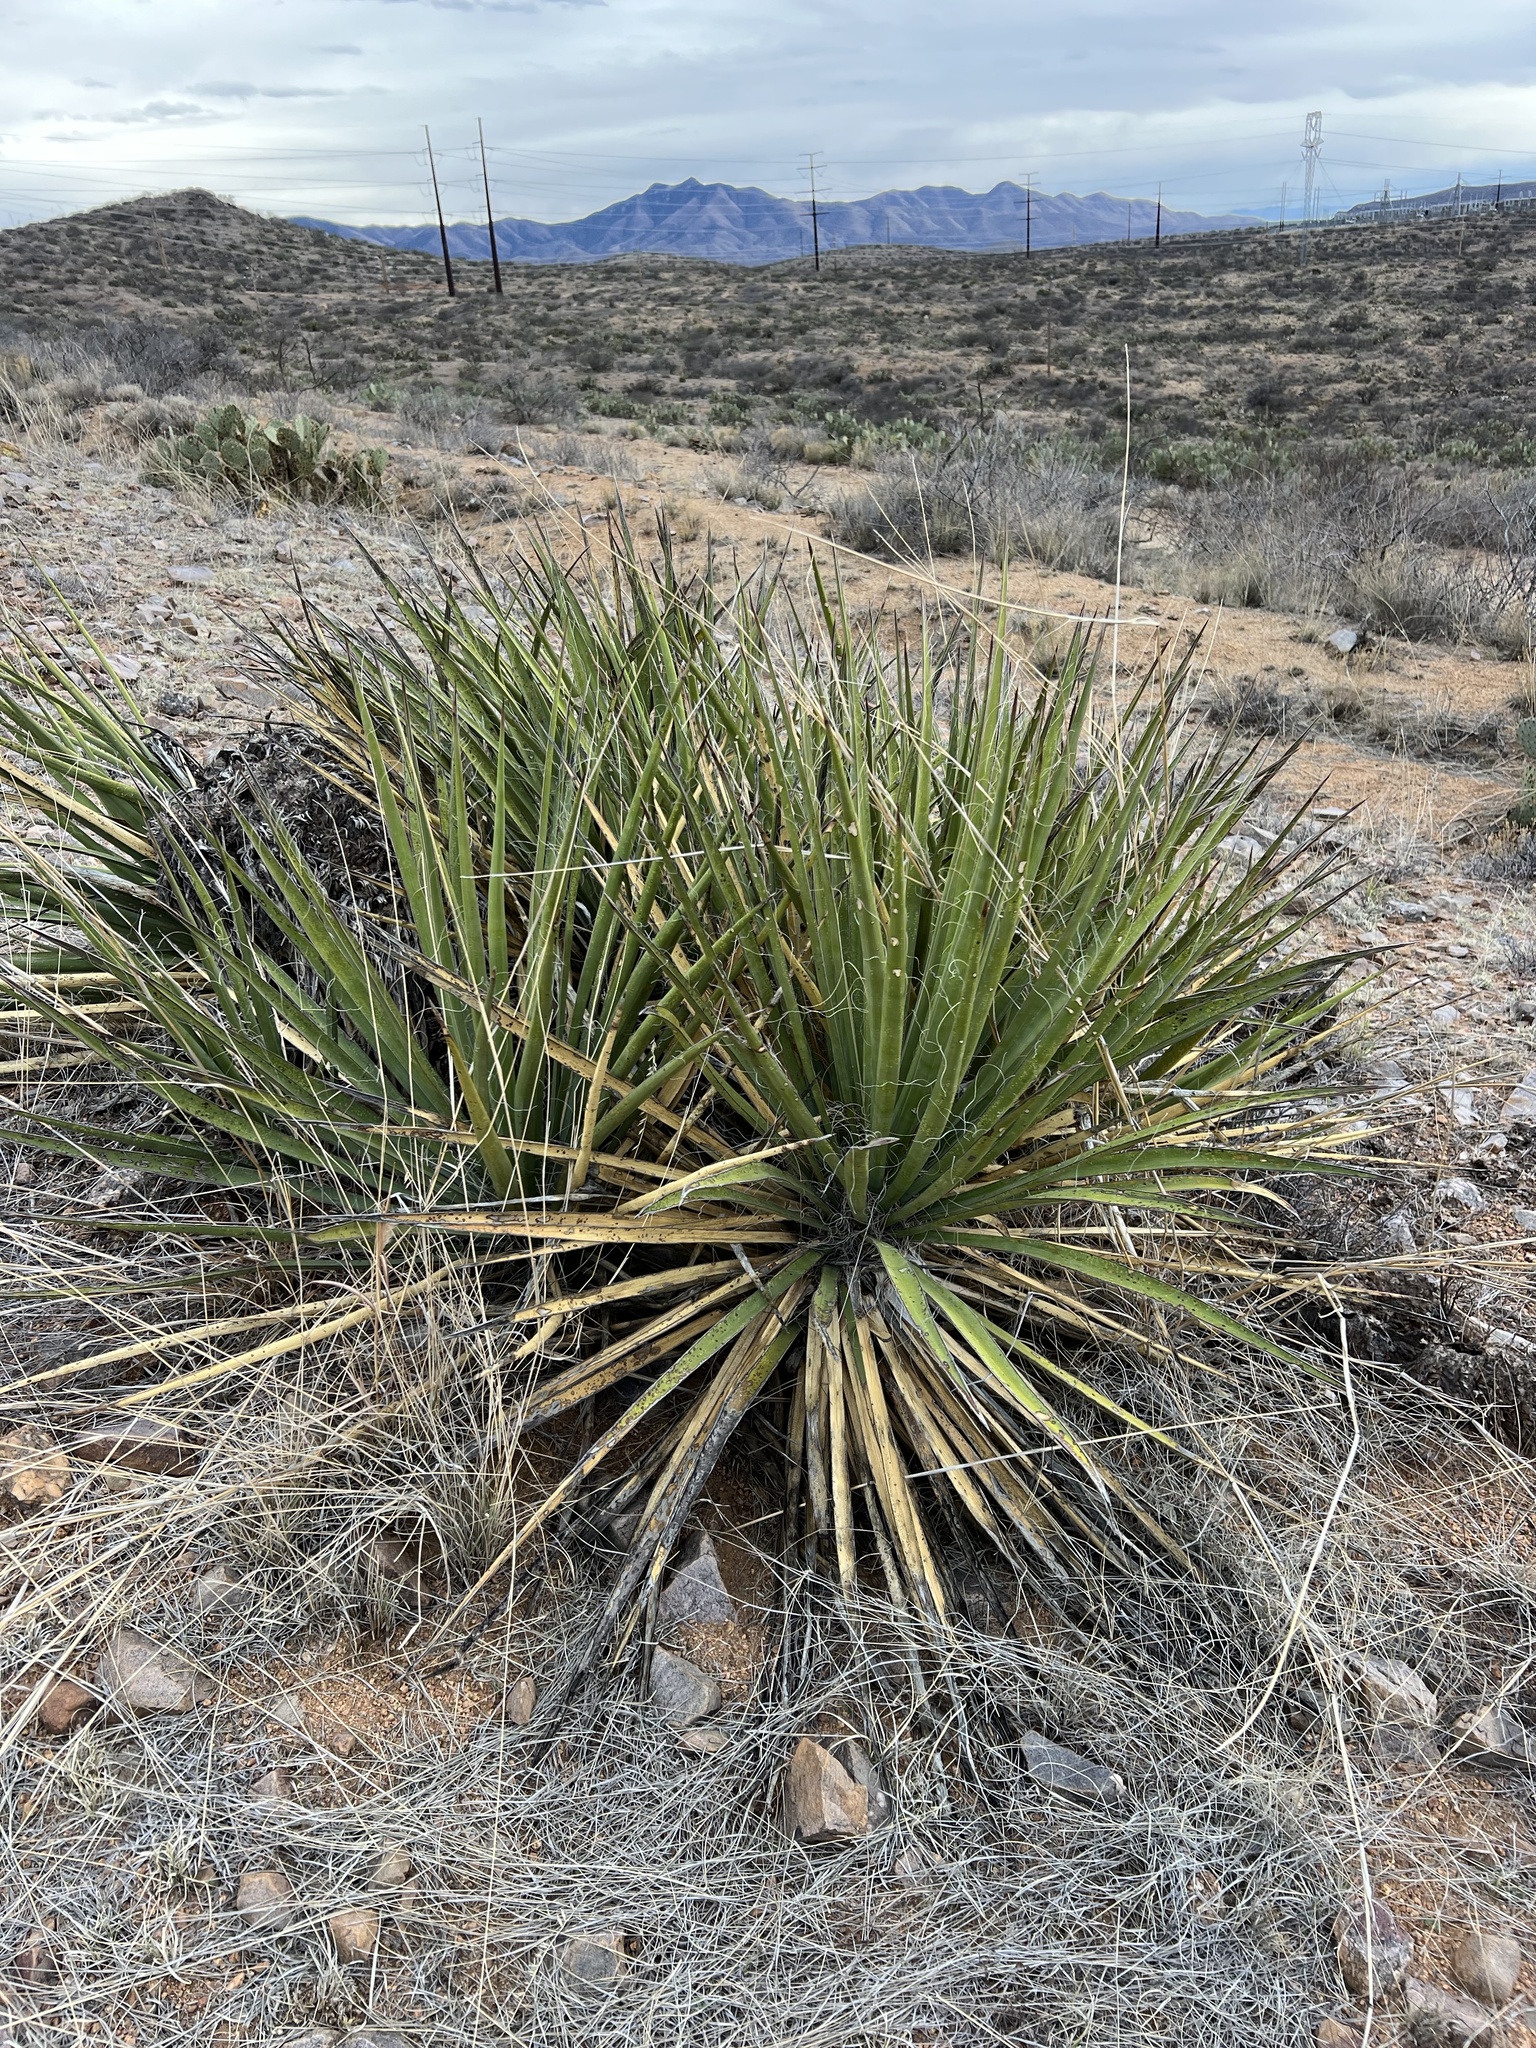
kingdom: Plantae
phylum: Tracheophyta
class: Liliopsida
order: Asparagales
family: Asparagaceae
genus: Yucca
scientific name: Yucca baccata
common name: Banana yucca
